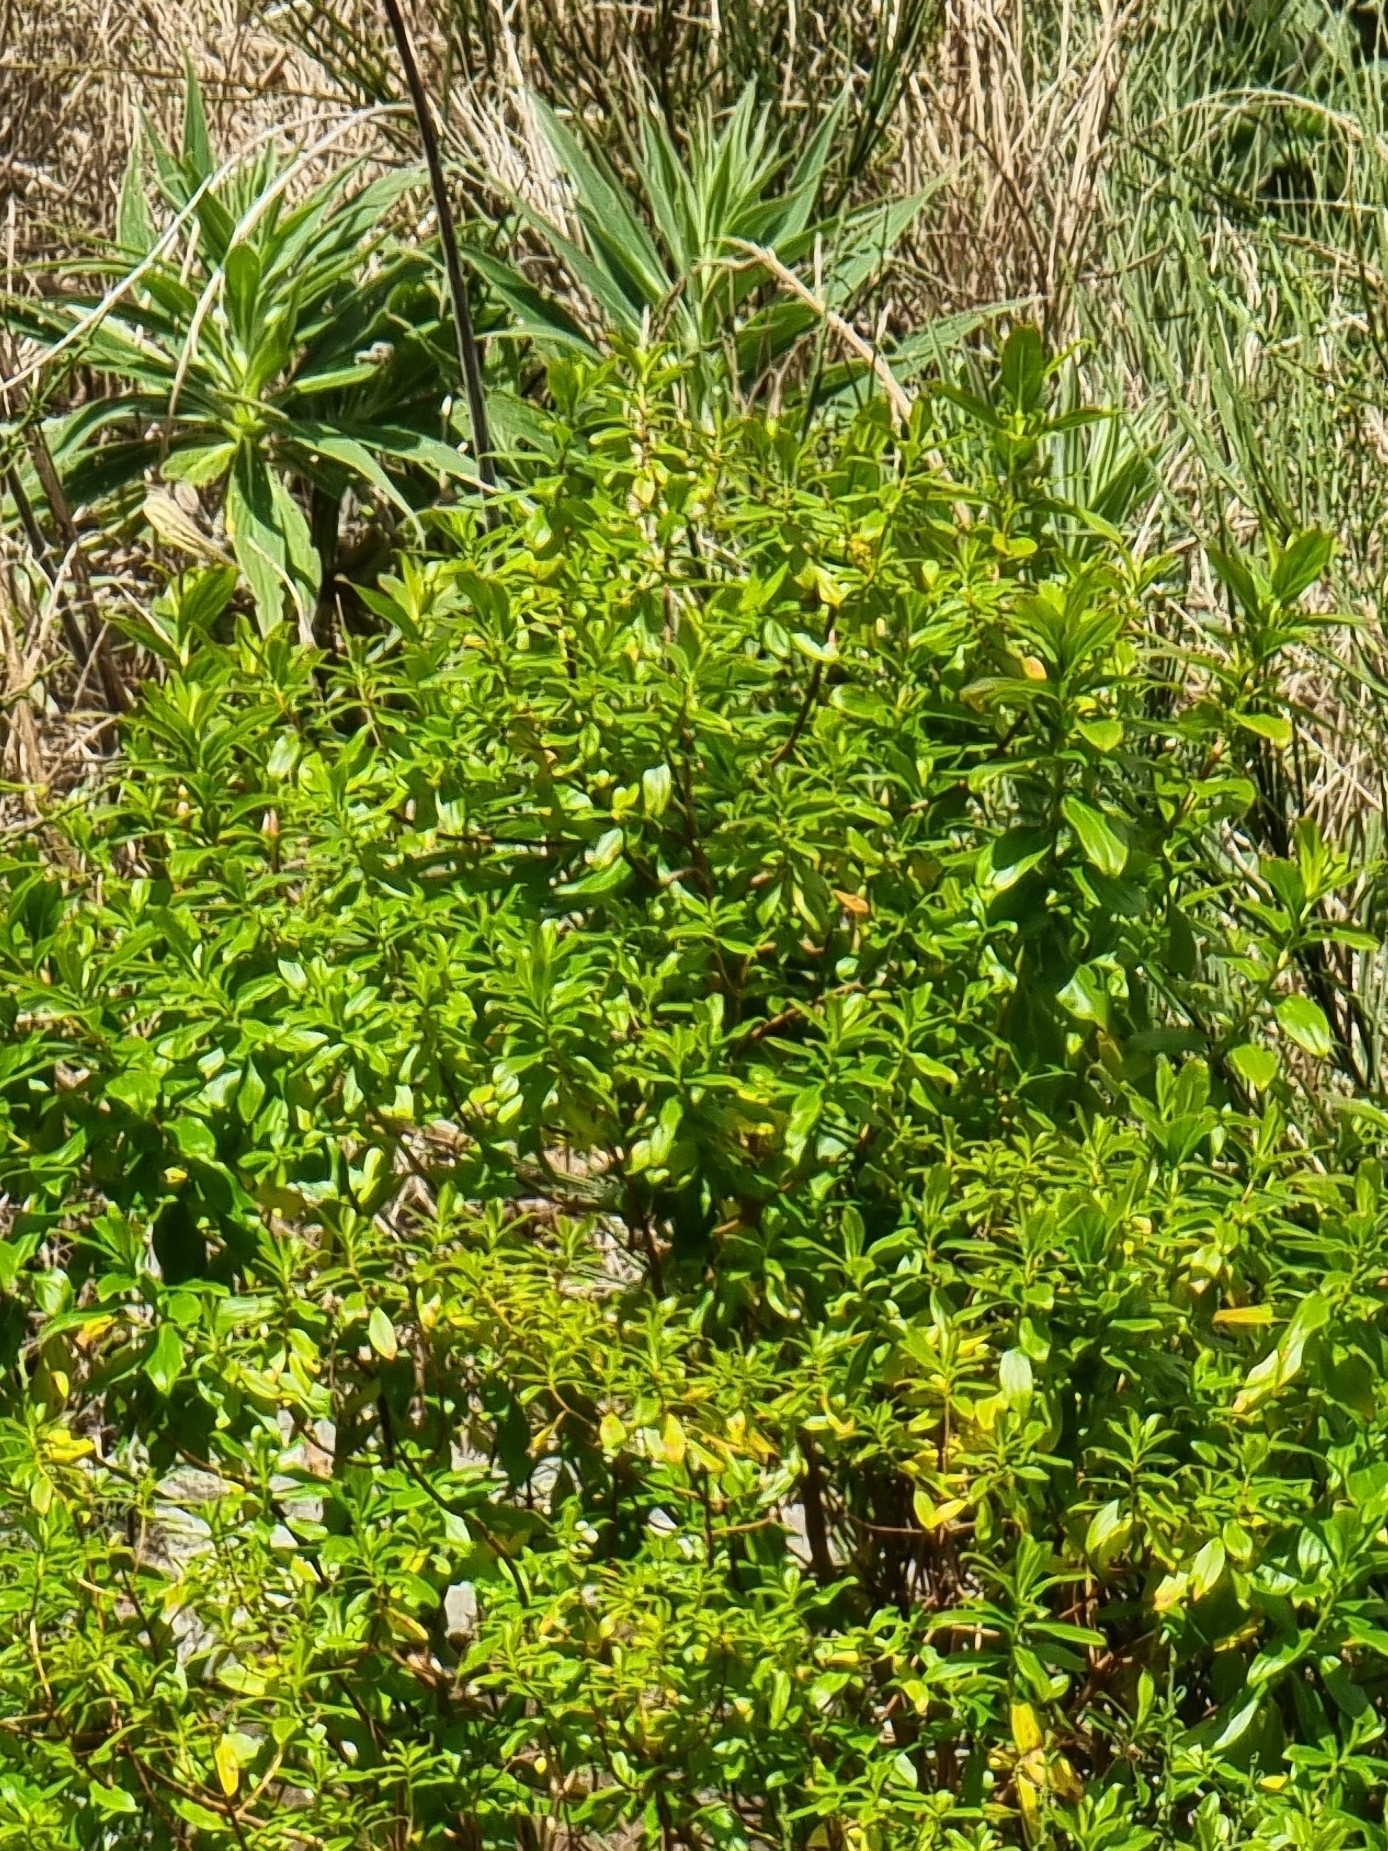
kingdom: Plantae
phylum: Tracheophyta
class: Magnoliopsida
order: Malpighiales
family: Hypericaceae
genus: Hypericum
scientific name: Hypericum glandulosum
